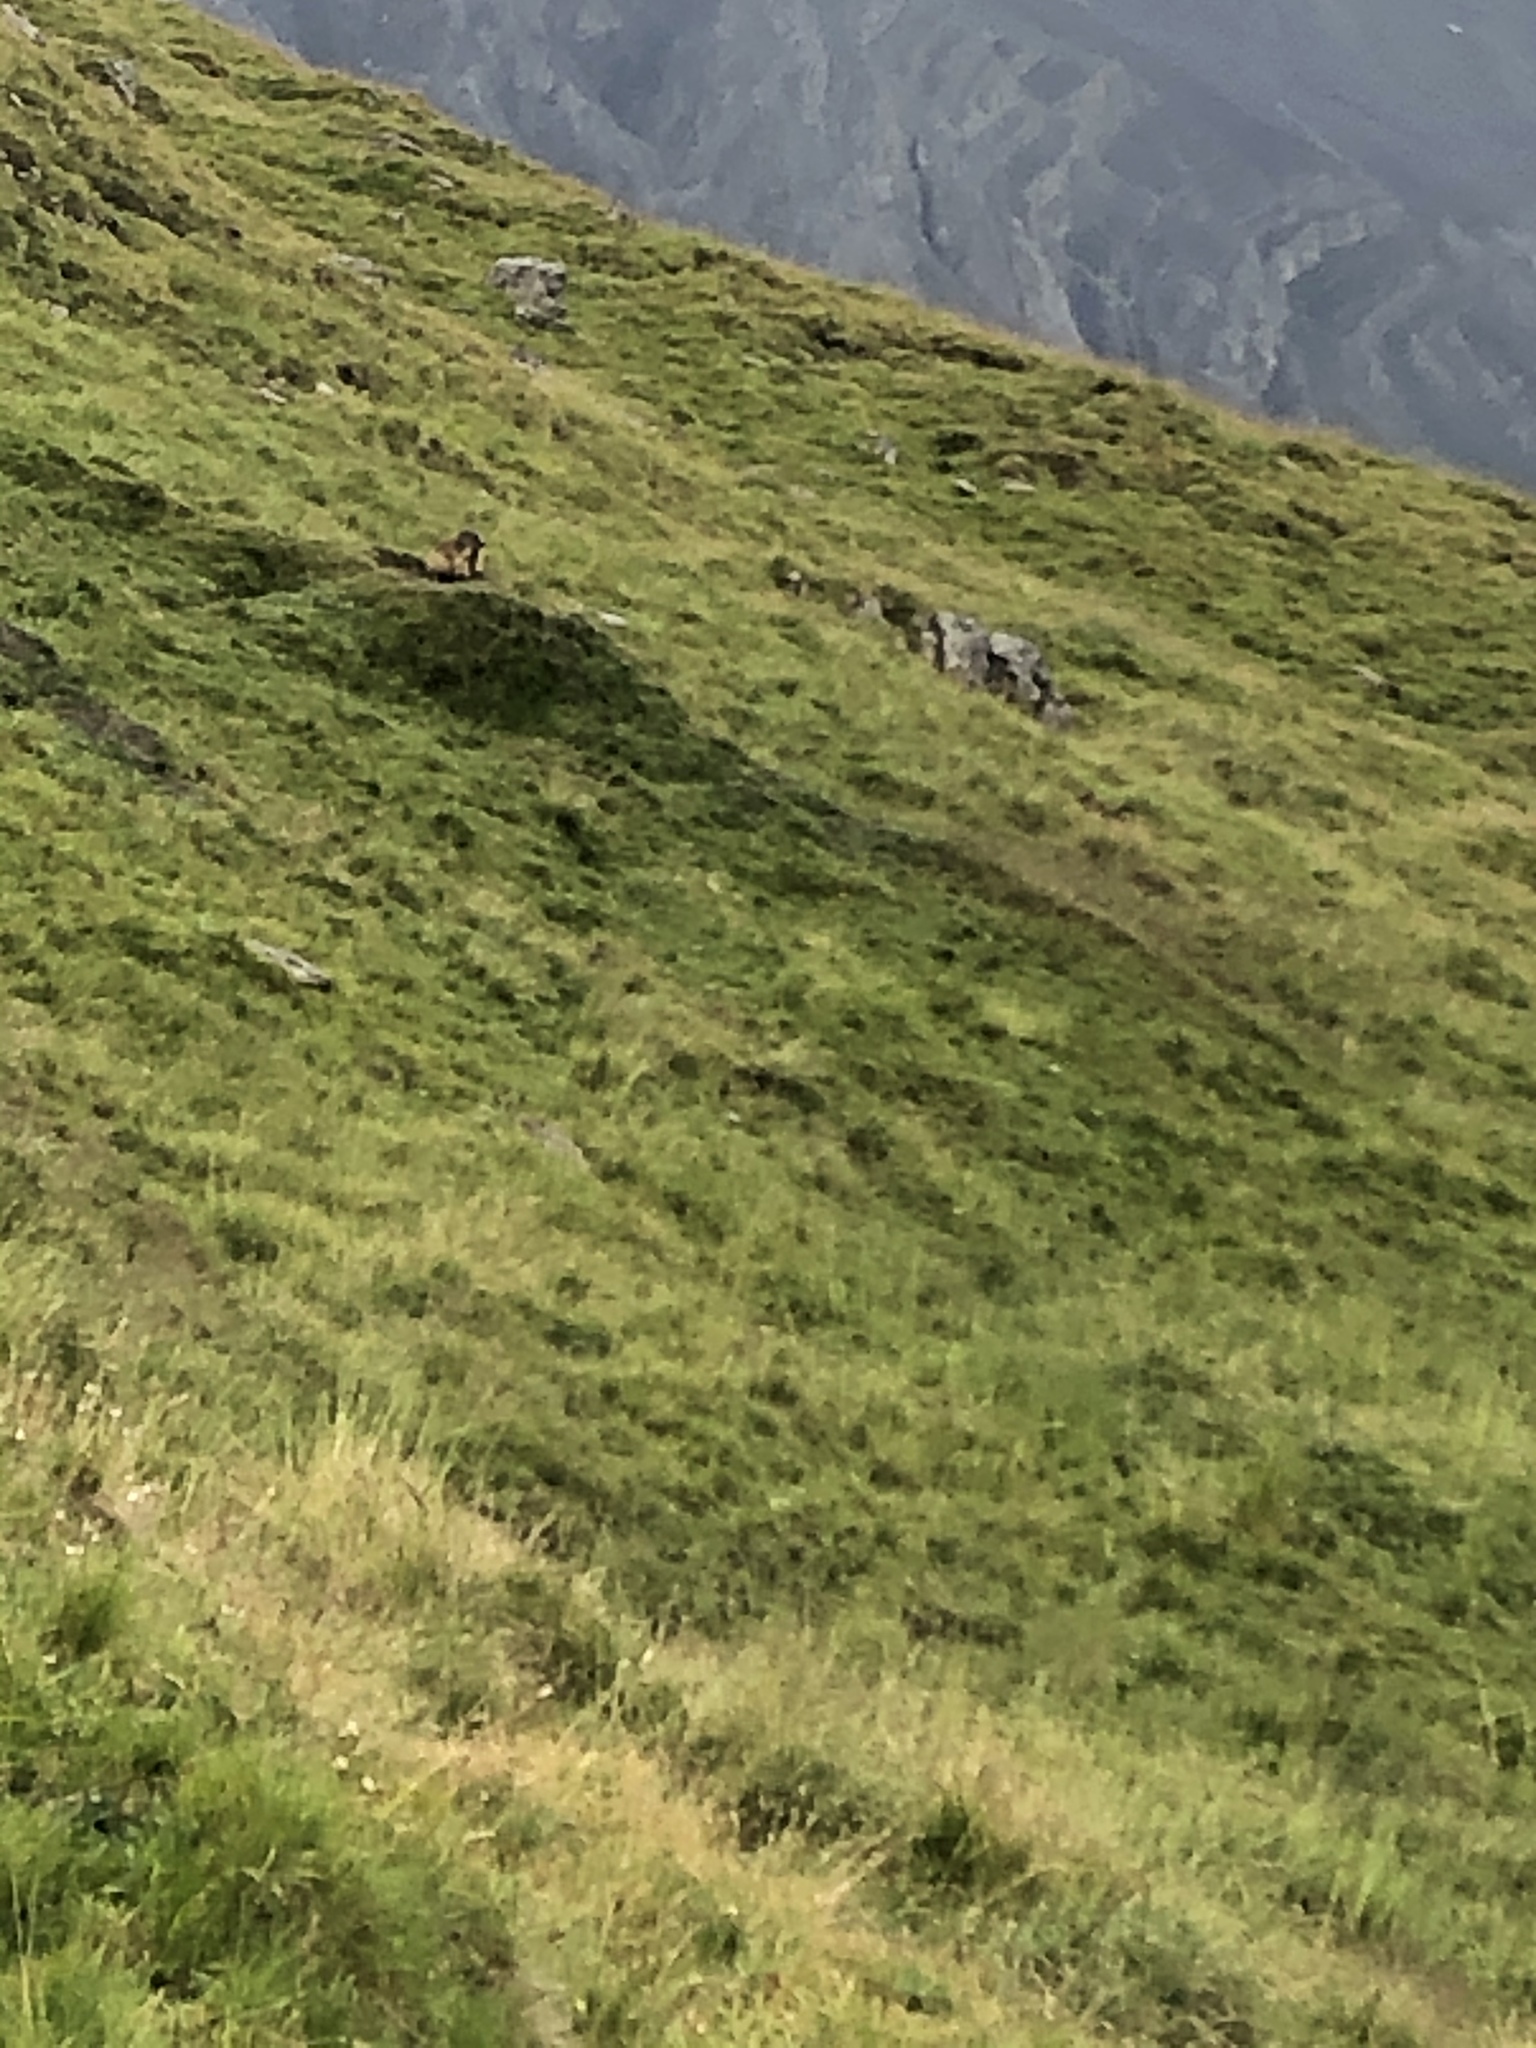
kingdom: Animalia
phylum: Chordata
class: Mammalia
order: Rodentia
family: Sciuridae
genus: Marmota
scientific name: Marmota marmota
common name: Alpine marmot
